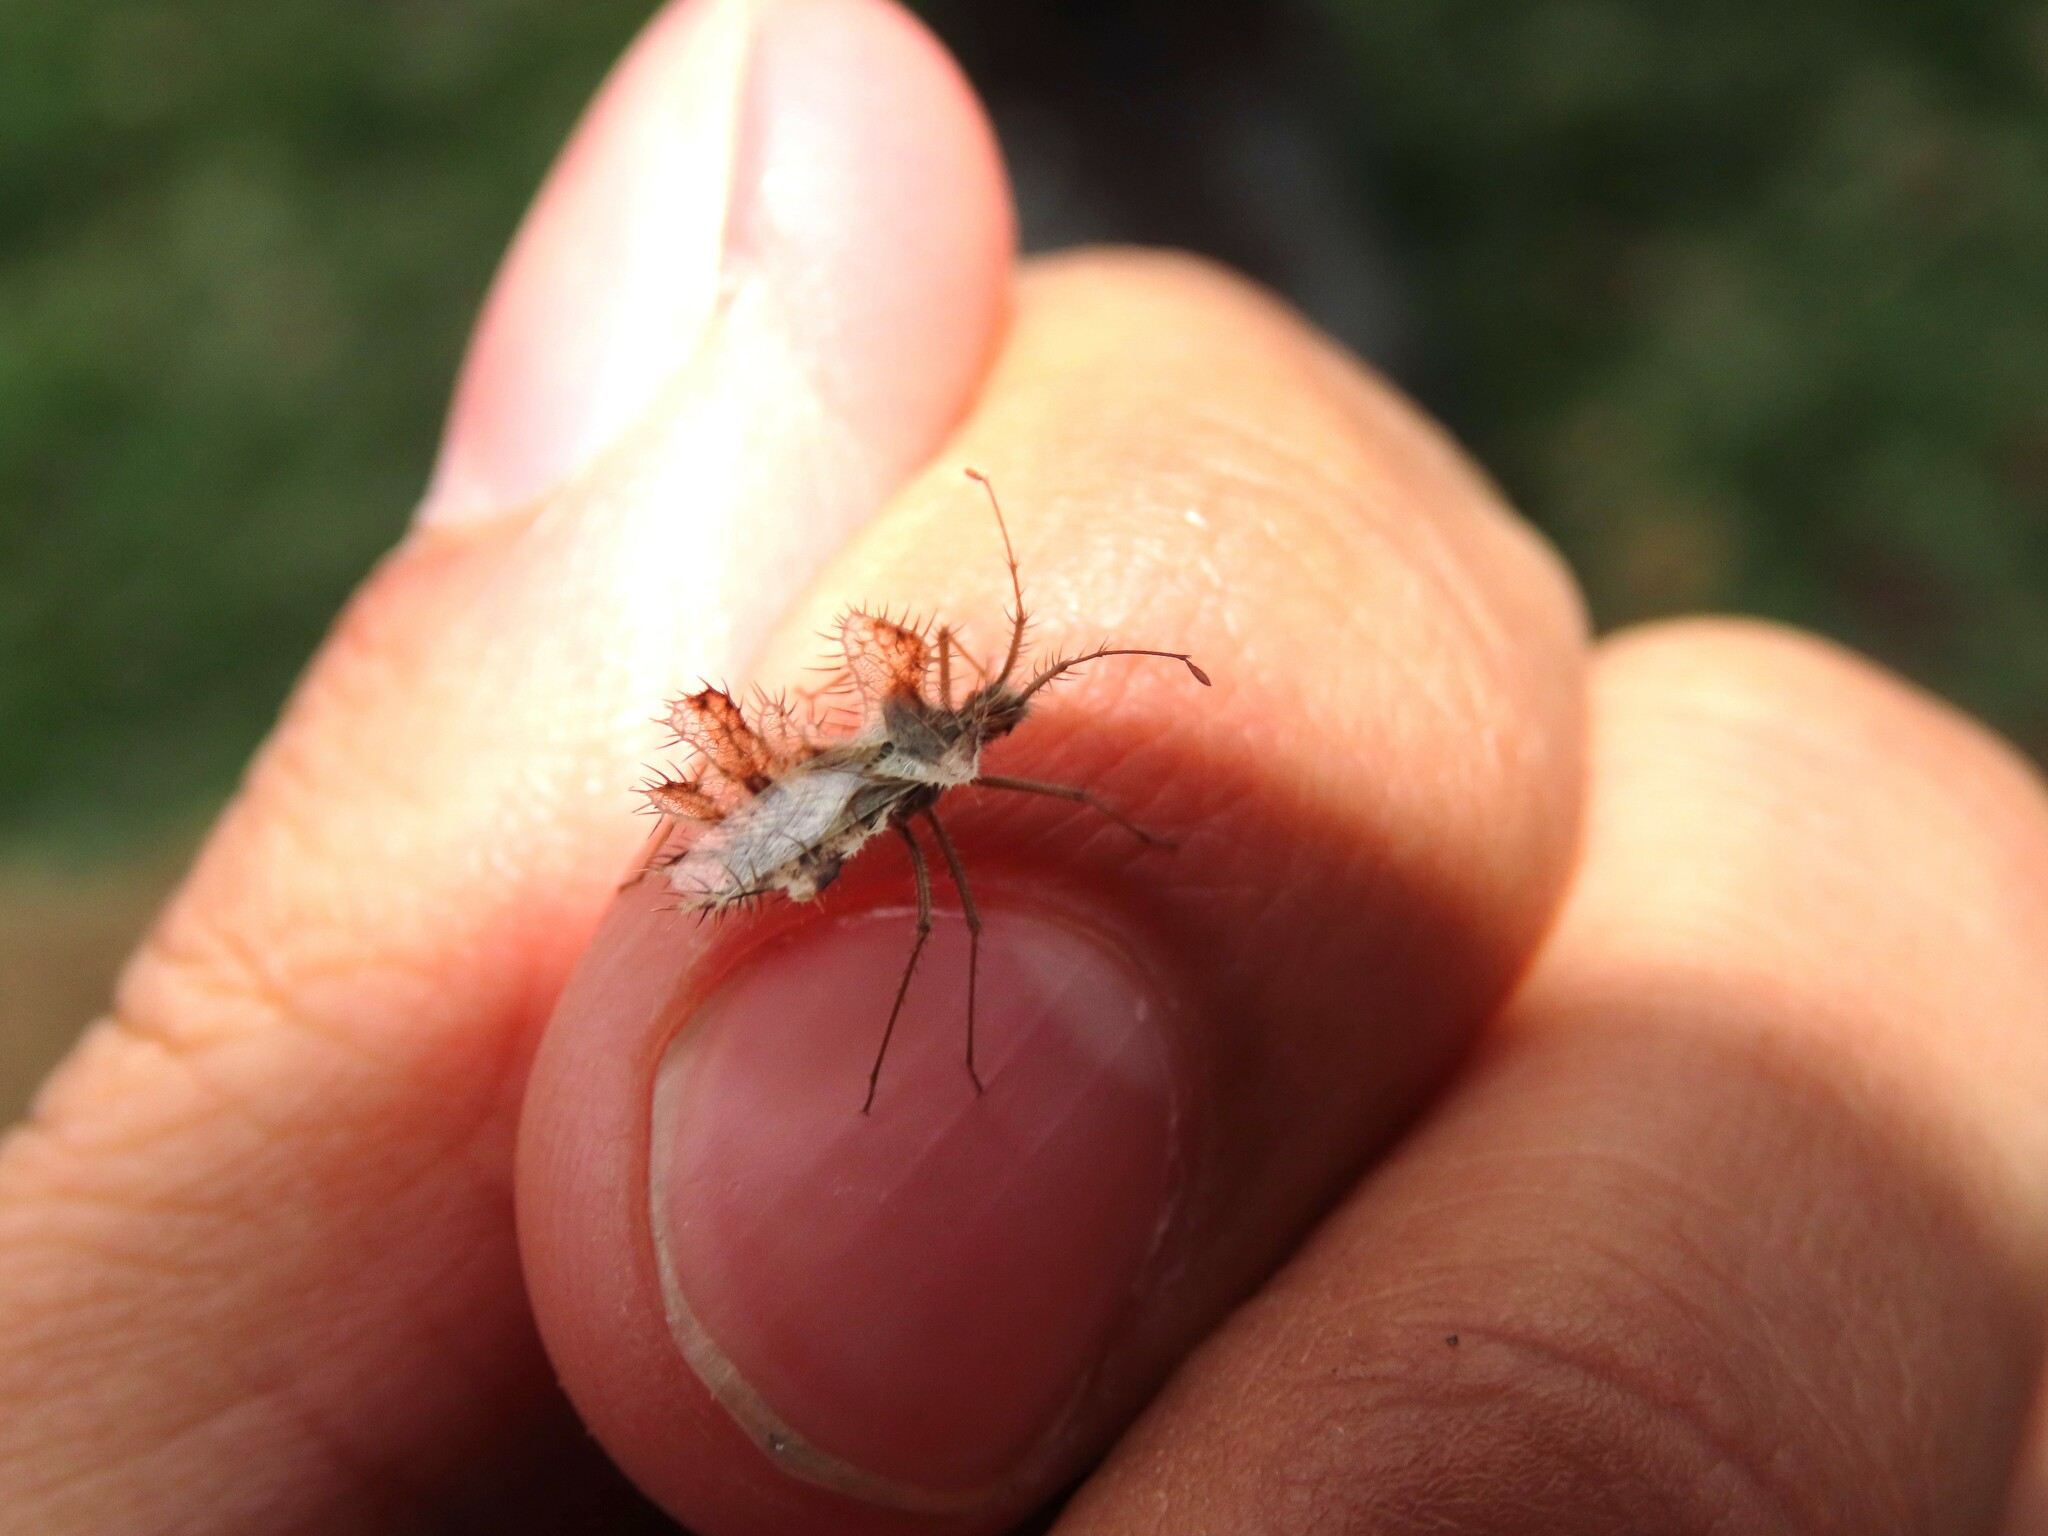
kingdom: Animalia
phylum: Arthropoda
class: Insecta
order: Hemiptera
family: Coreidae
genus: Phyllomorpha
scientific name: Phyllomorpha laciniata
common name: Golden egg bug
